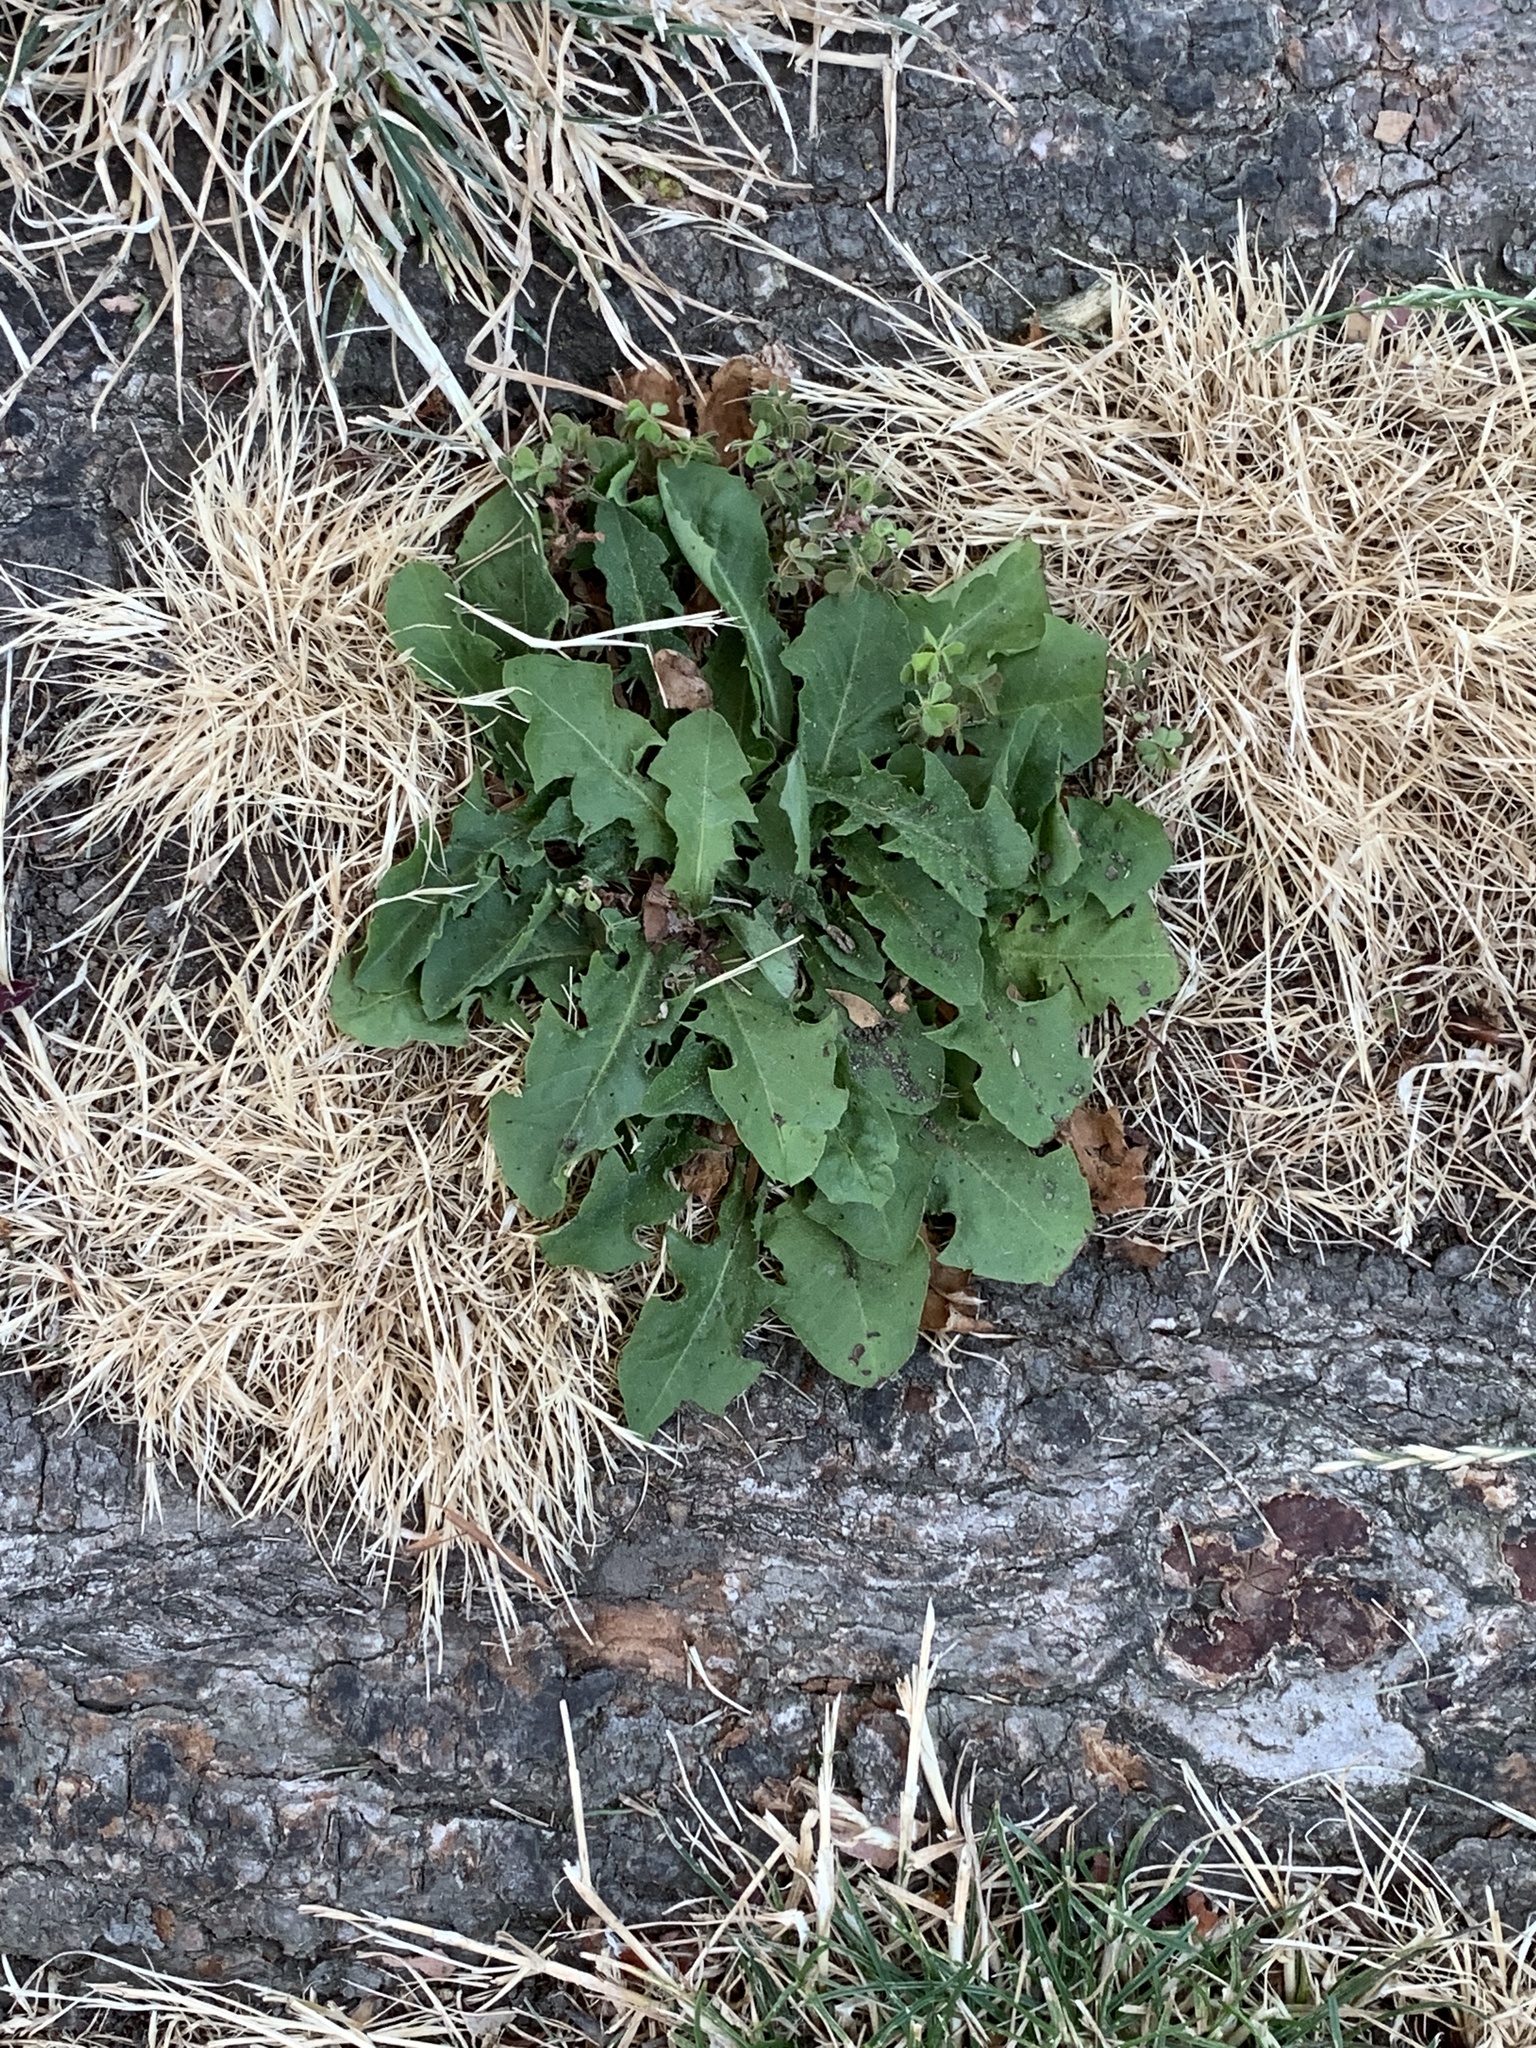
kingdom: Plantae
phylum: Tracheophyta
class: Magnoliopsida
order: Asterales
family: Asteraceae
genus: Taraxacum
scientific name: Taraxacum officinale
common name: Common dandelion
